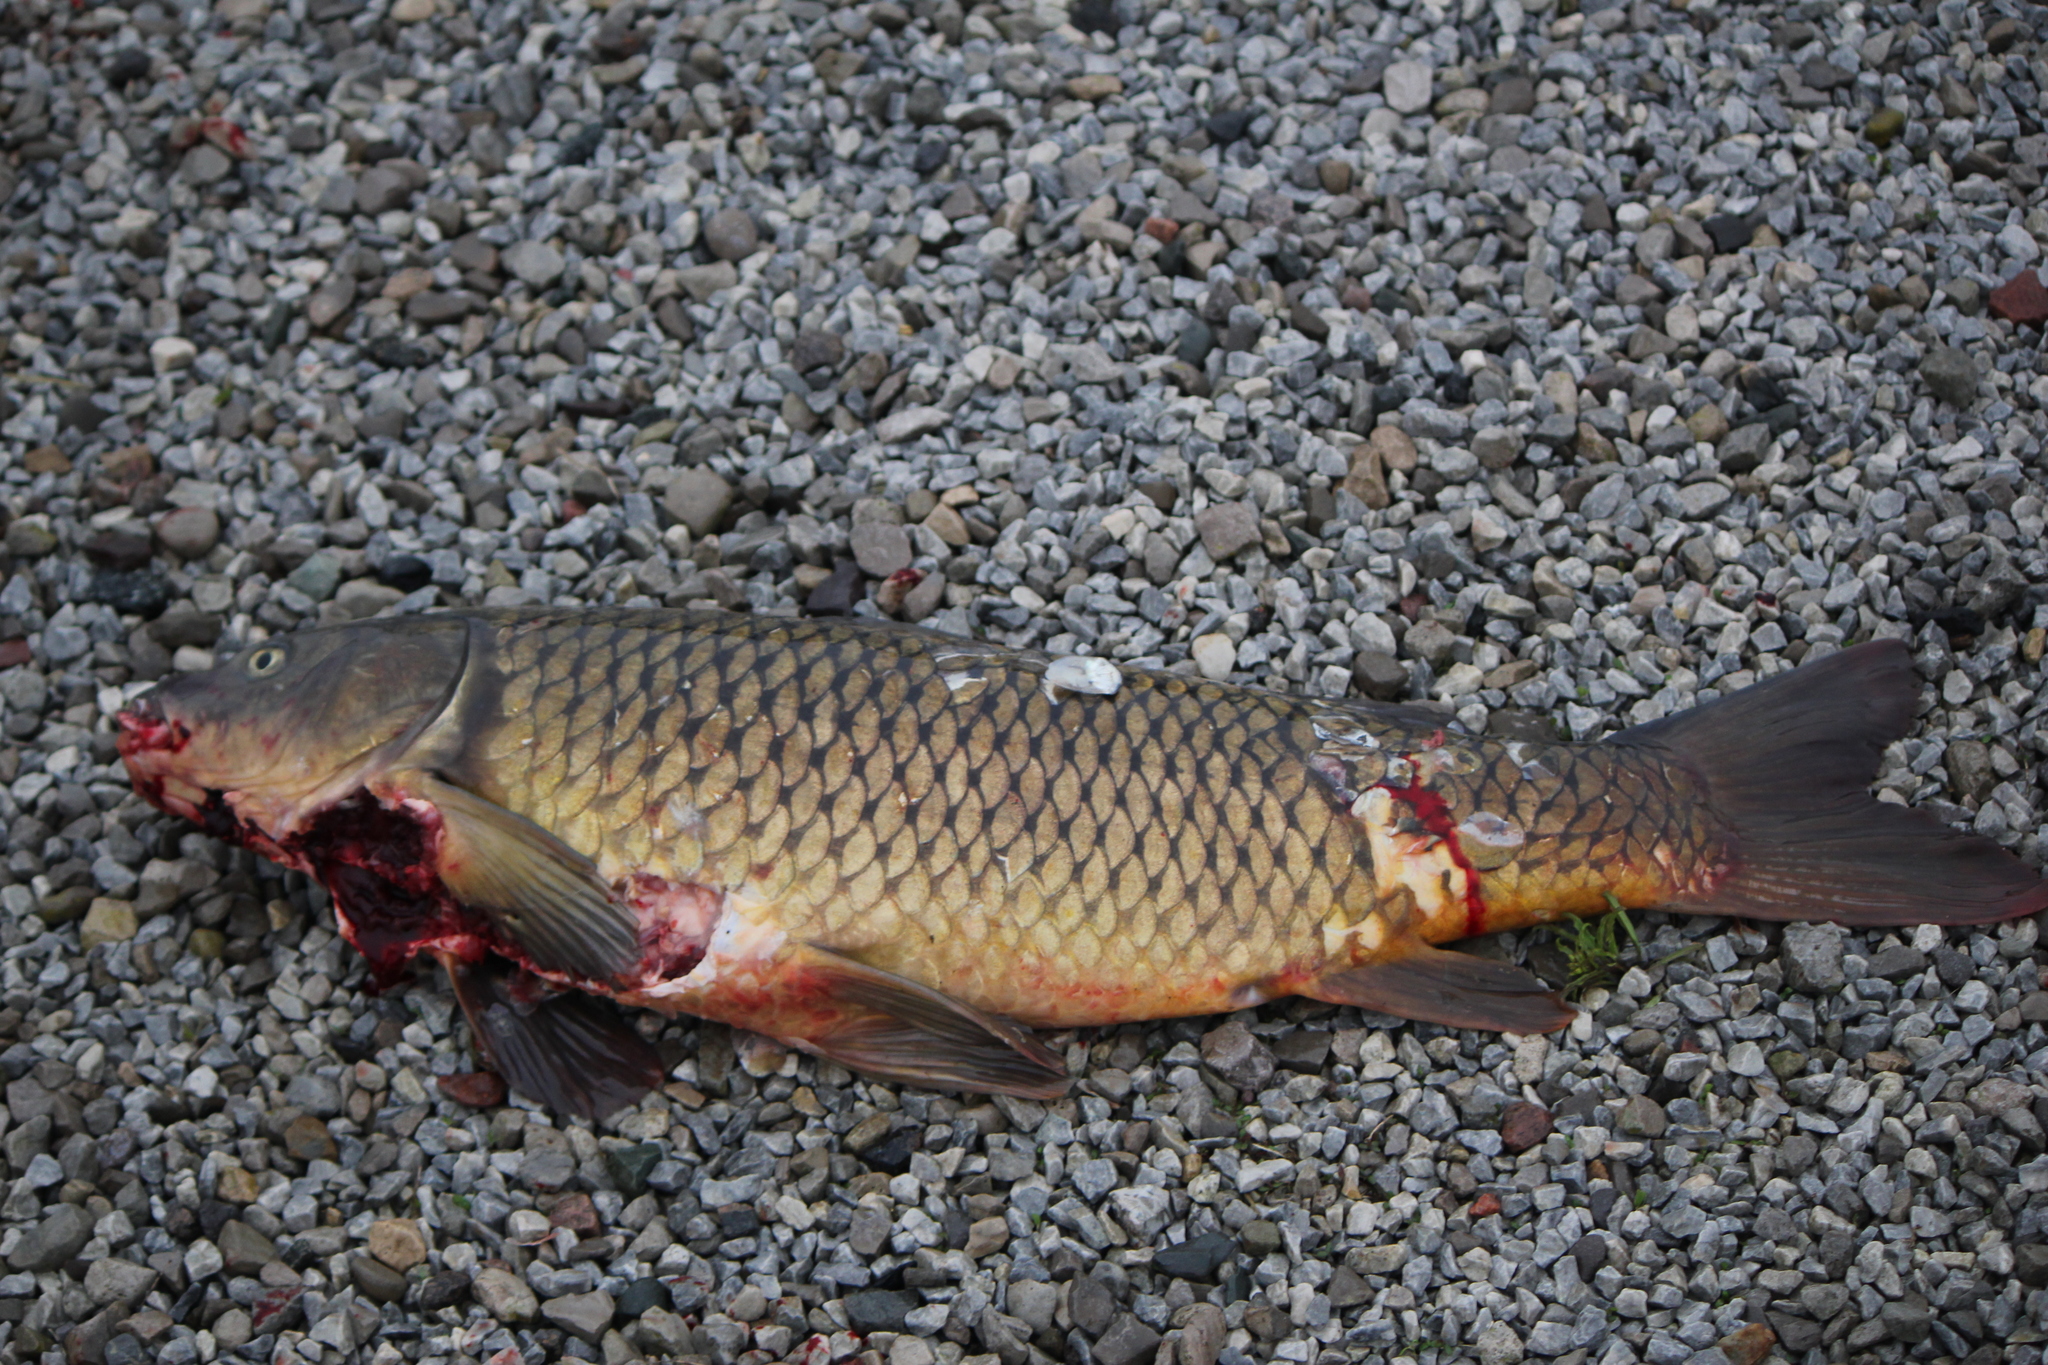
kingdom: Animalia
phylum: Chordata
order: Cypriniformes
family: Cyprinidae
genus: Cyprinus
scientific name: Cyprinus carpio
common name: Common carp
